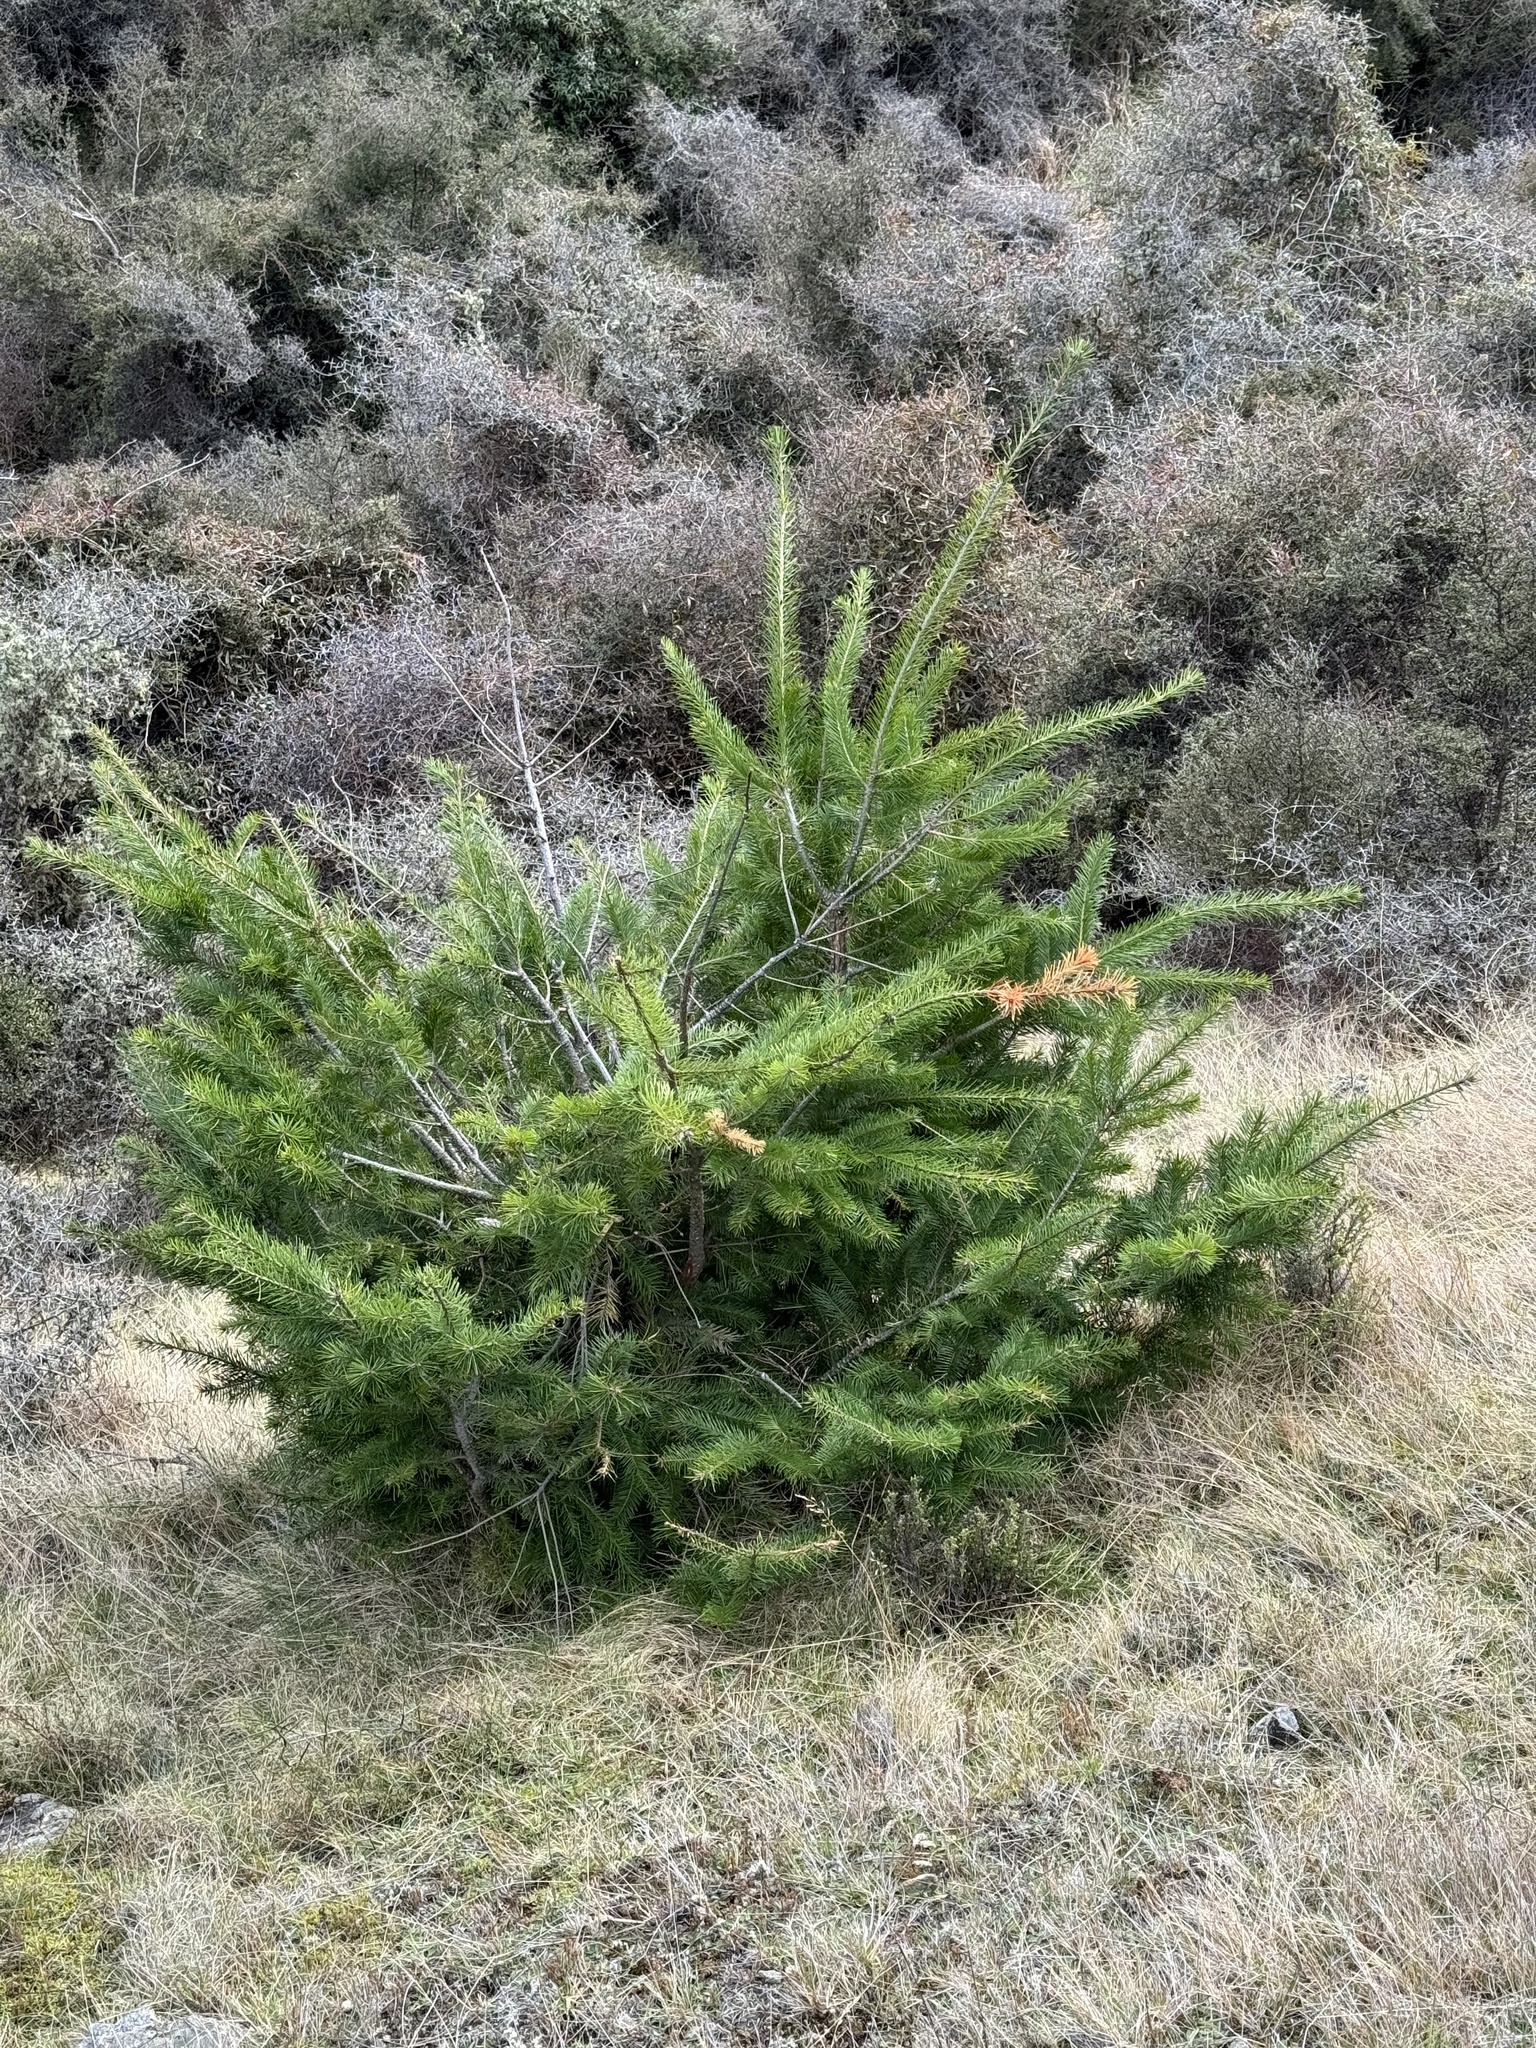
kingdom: Plantae
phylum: Tracheophyta
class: Pinopsida
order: Pinales
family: Pinaceae
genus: Pseudotsuga
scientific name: Pseudotsuga menziesii
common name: Douglas fir
